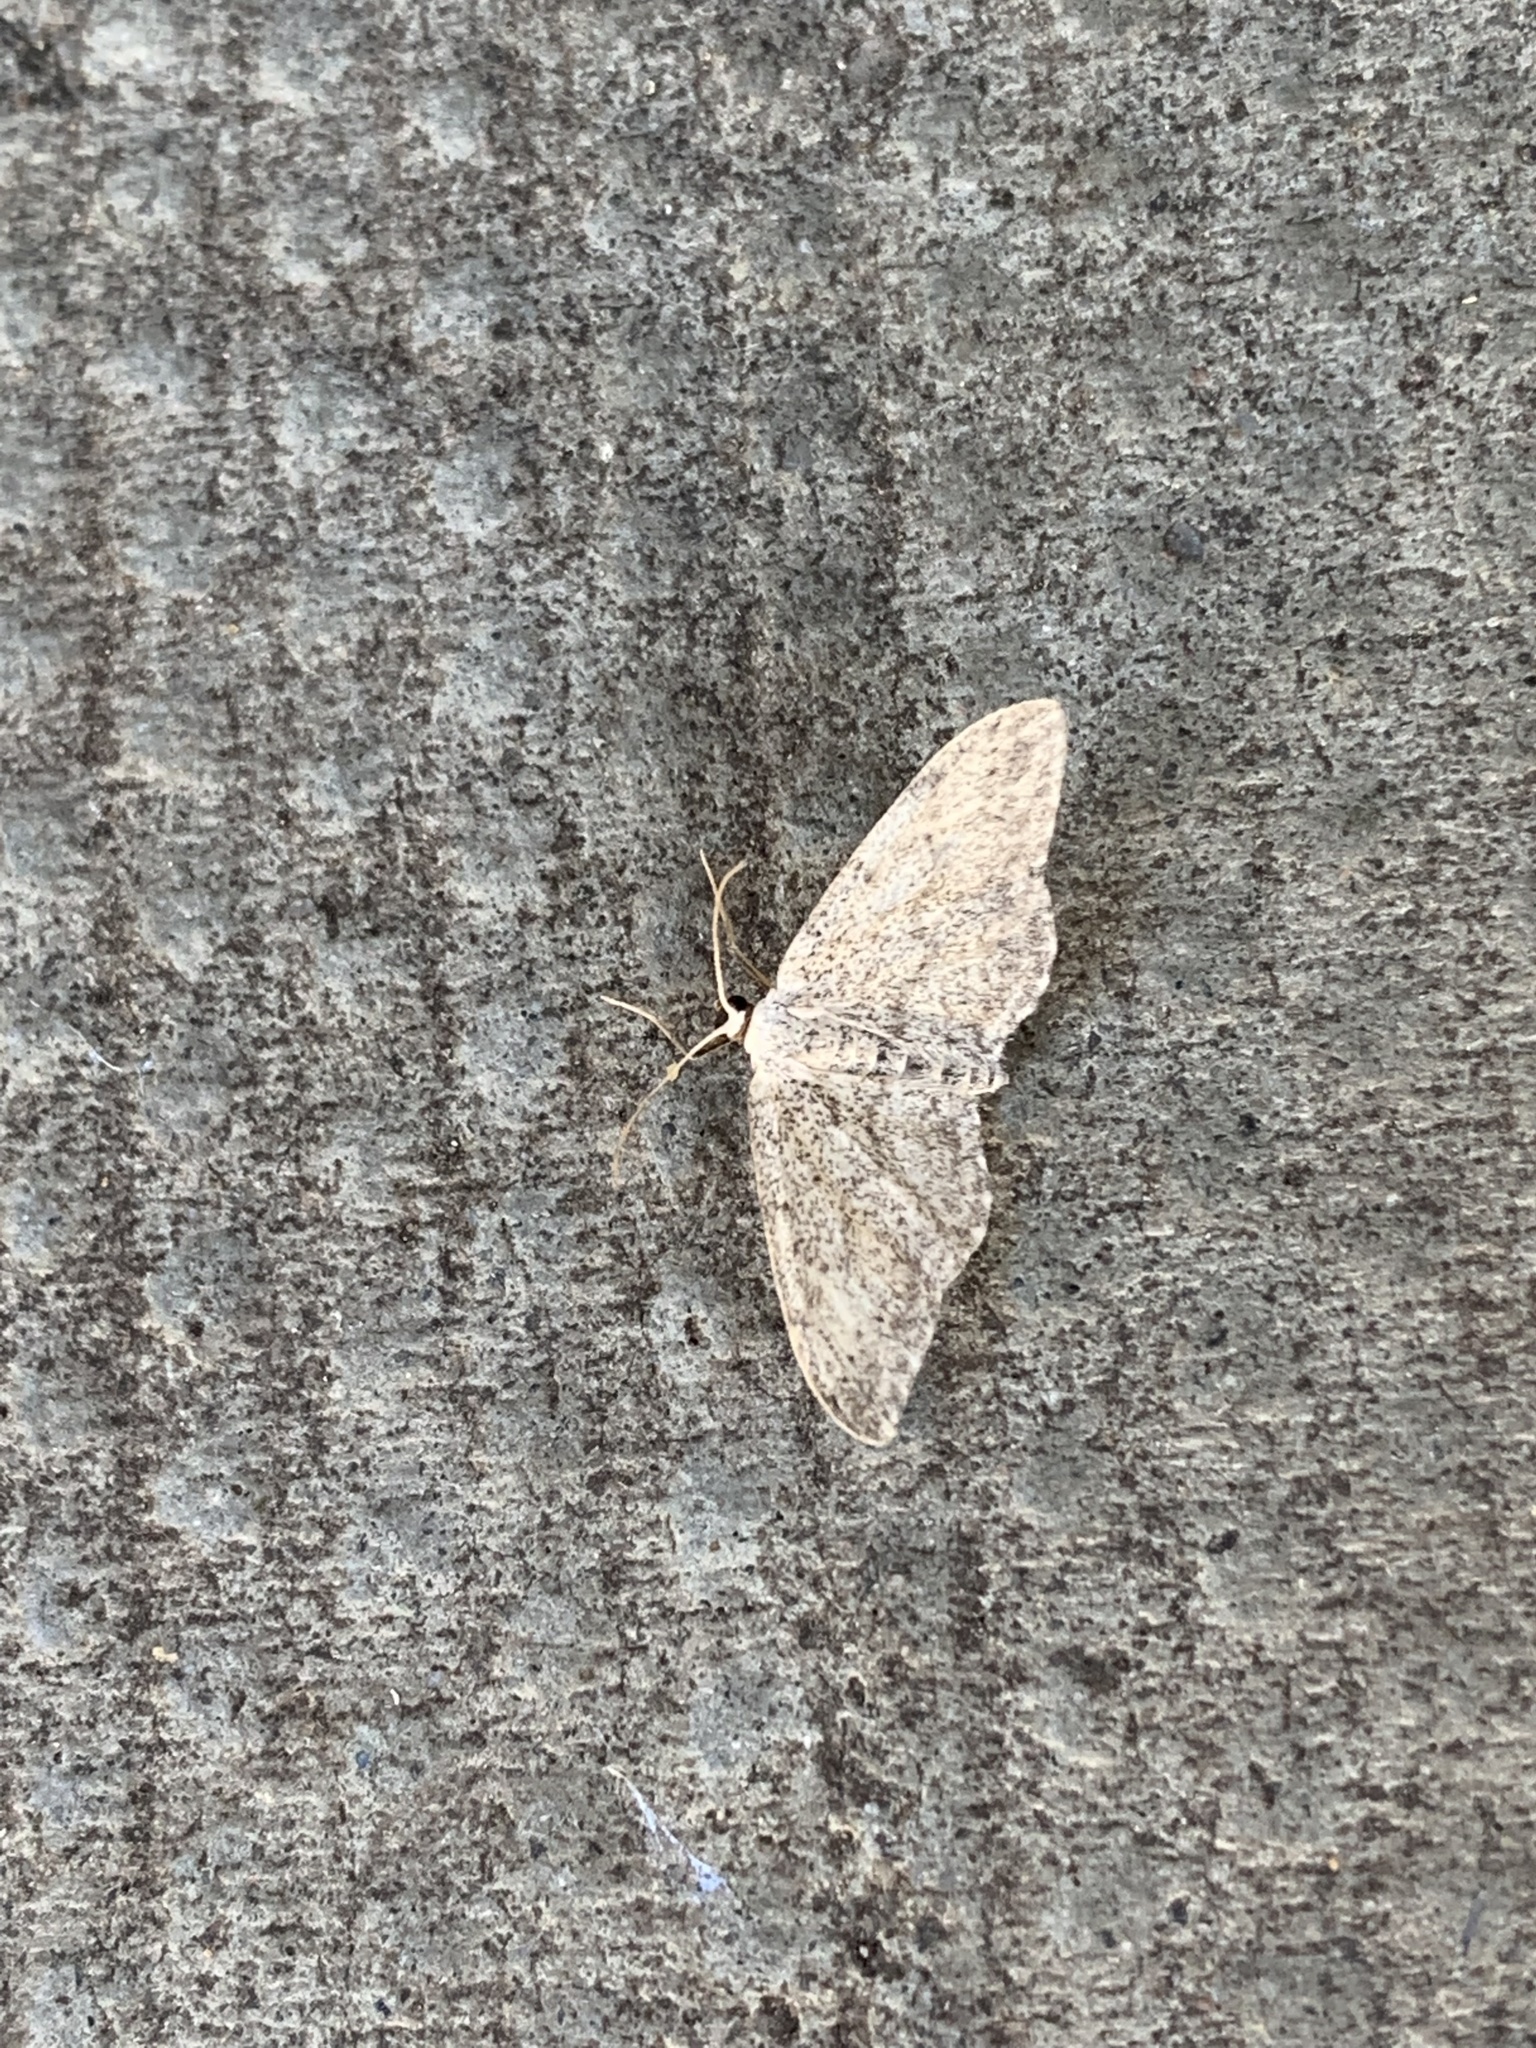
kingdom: Animalia
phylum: Arthropoda
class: Insecta
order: Lepidoptera
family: Geometridae
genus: Idaea
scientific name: Idaea seriata
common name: Small dusty wave
